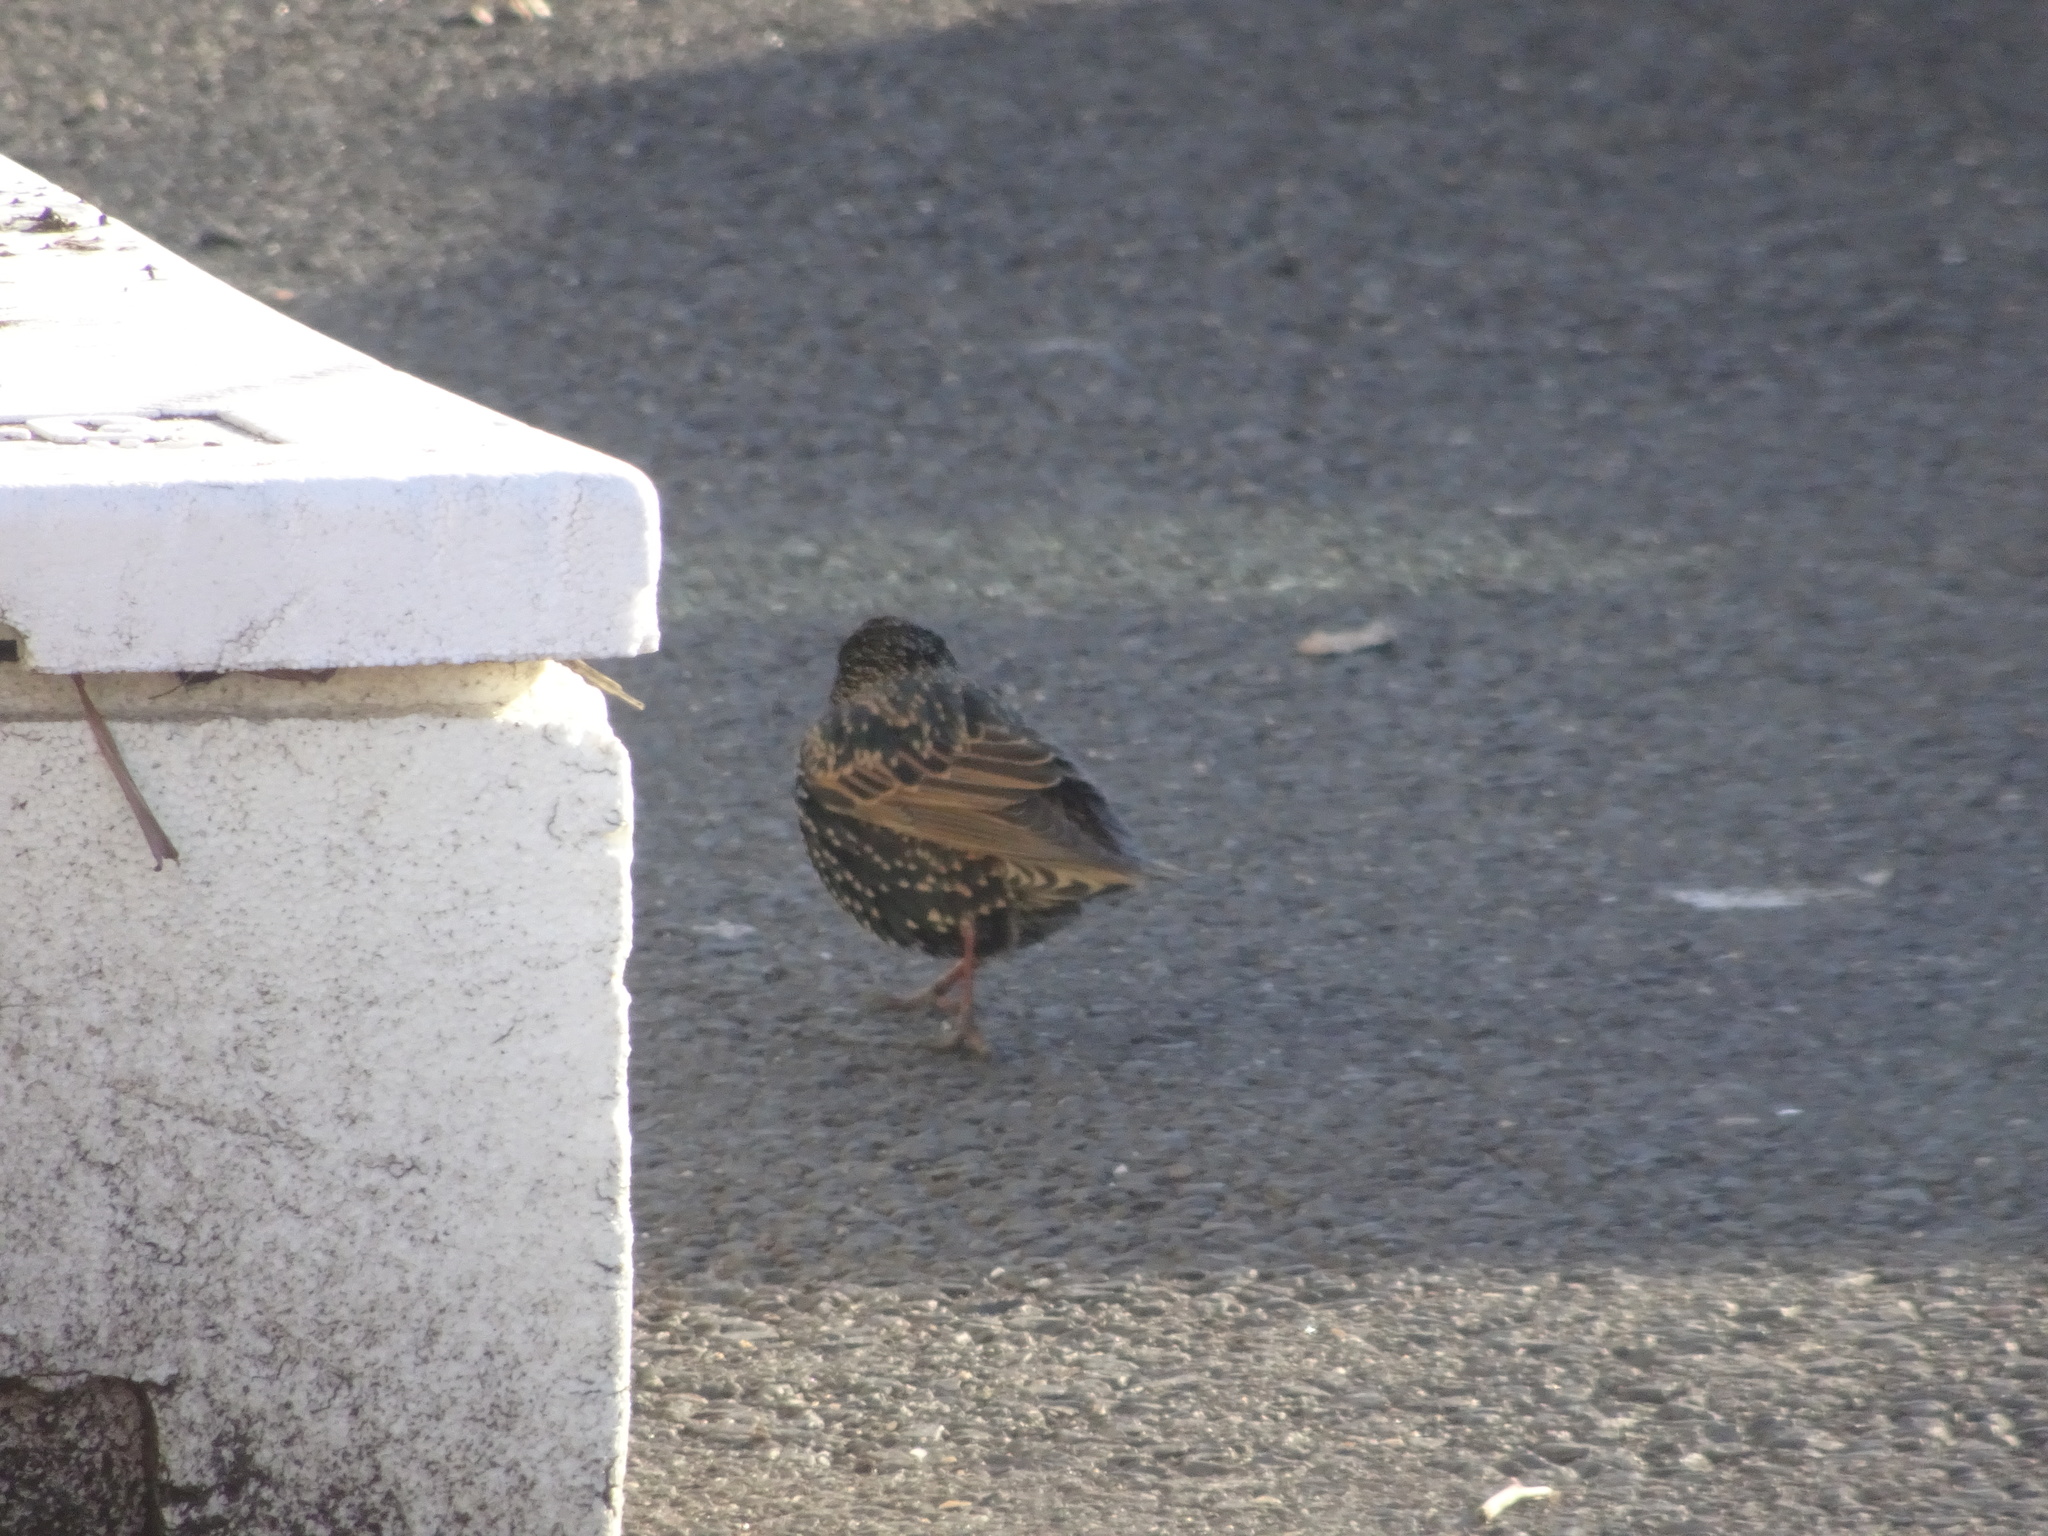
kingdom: Animalia
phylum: Chordata
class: Aves
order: Passeriformes
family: Sturnidae
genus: Sturnus
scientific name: Sturnus vulgaris
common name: Common starling
